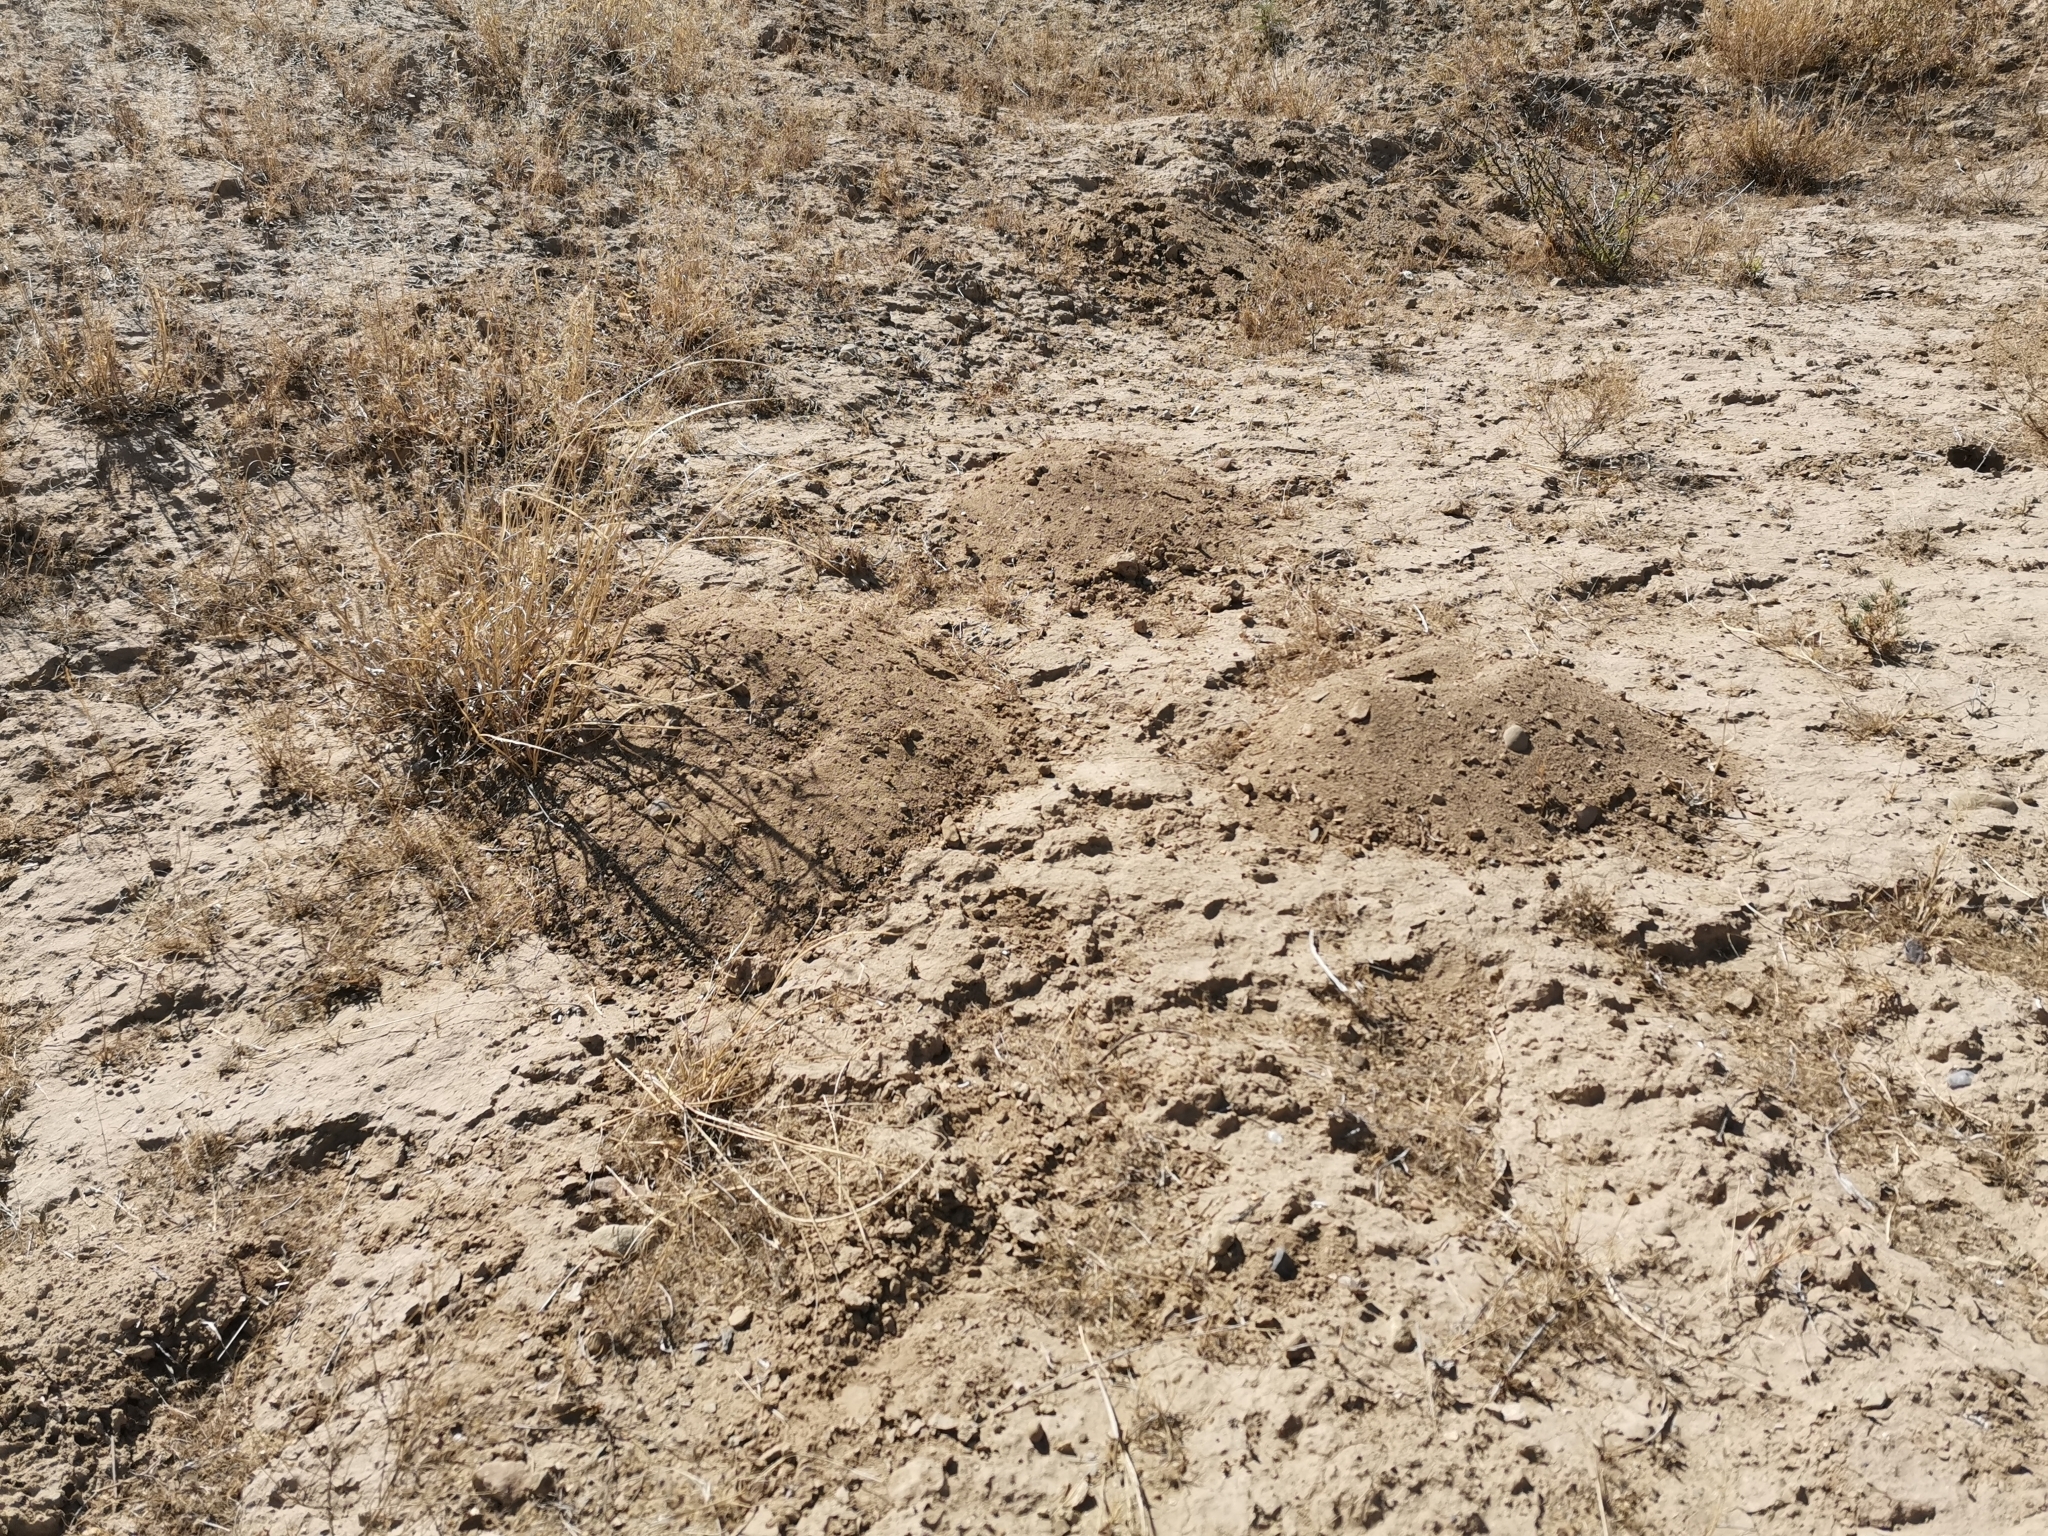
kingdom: Animalia
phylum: Chordata
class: Mammalia
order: Rodentia
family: Geomyidae
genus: Cratogeomys
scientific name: Cratogeomys castanops
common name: Yellow-faced pocket gopher
